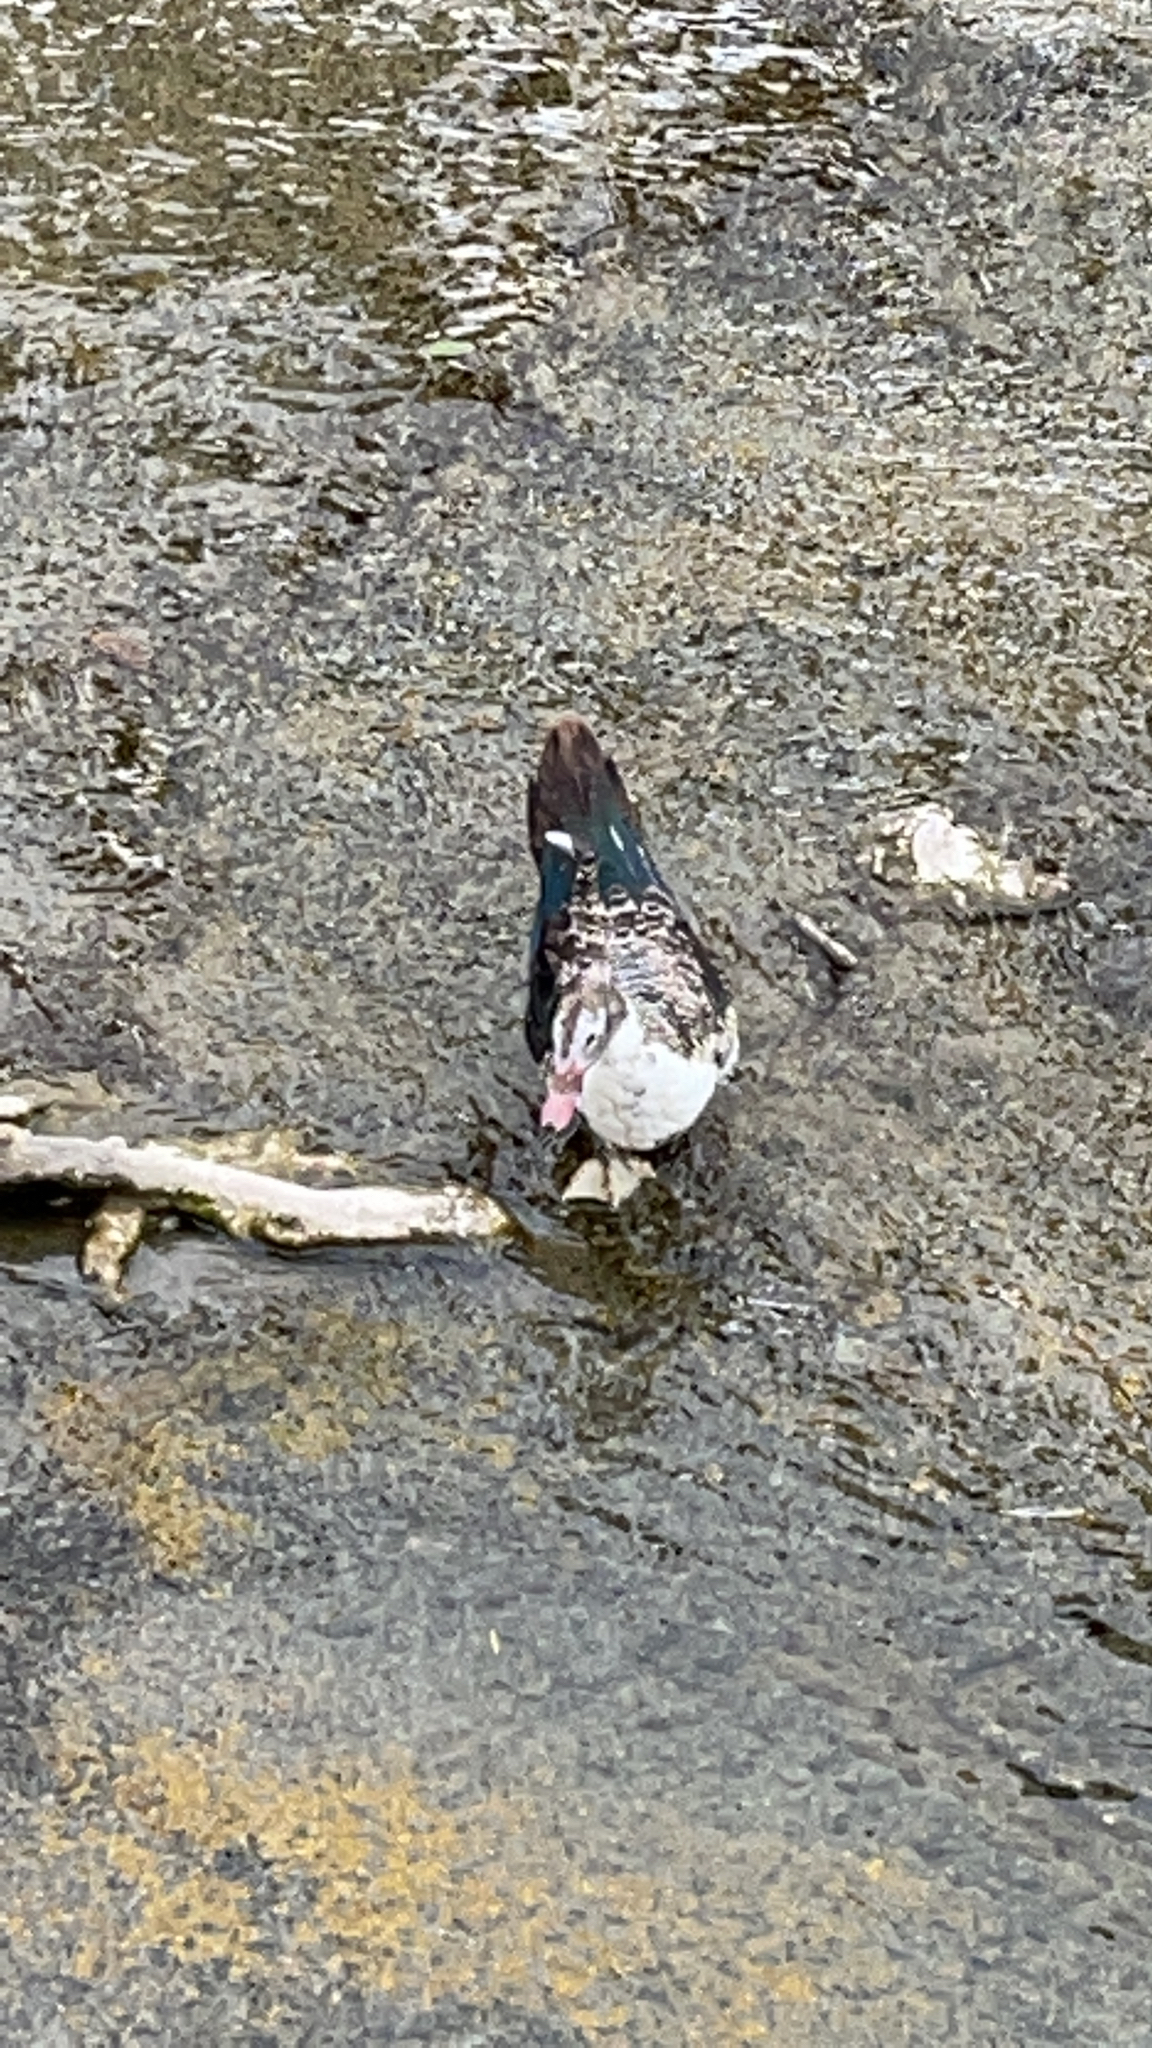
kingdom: Animalia
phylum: Chordata
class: Aves
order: Anseriformes
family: Anatidae
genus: Cairina
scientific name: Cairina moschata
